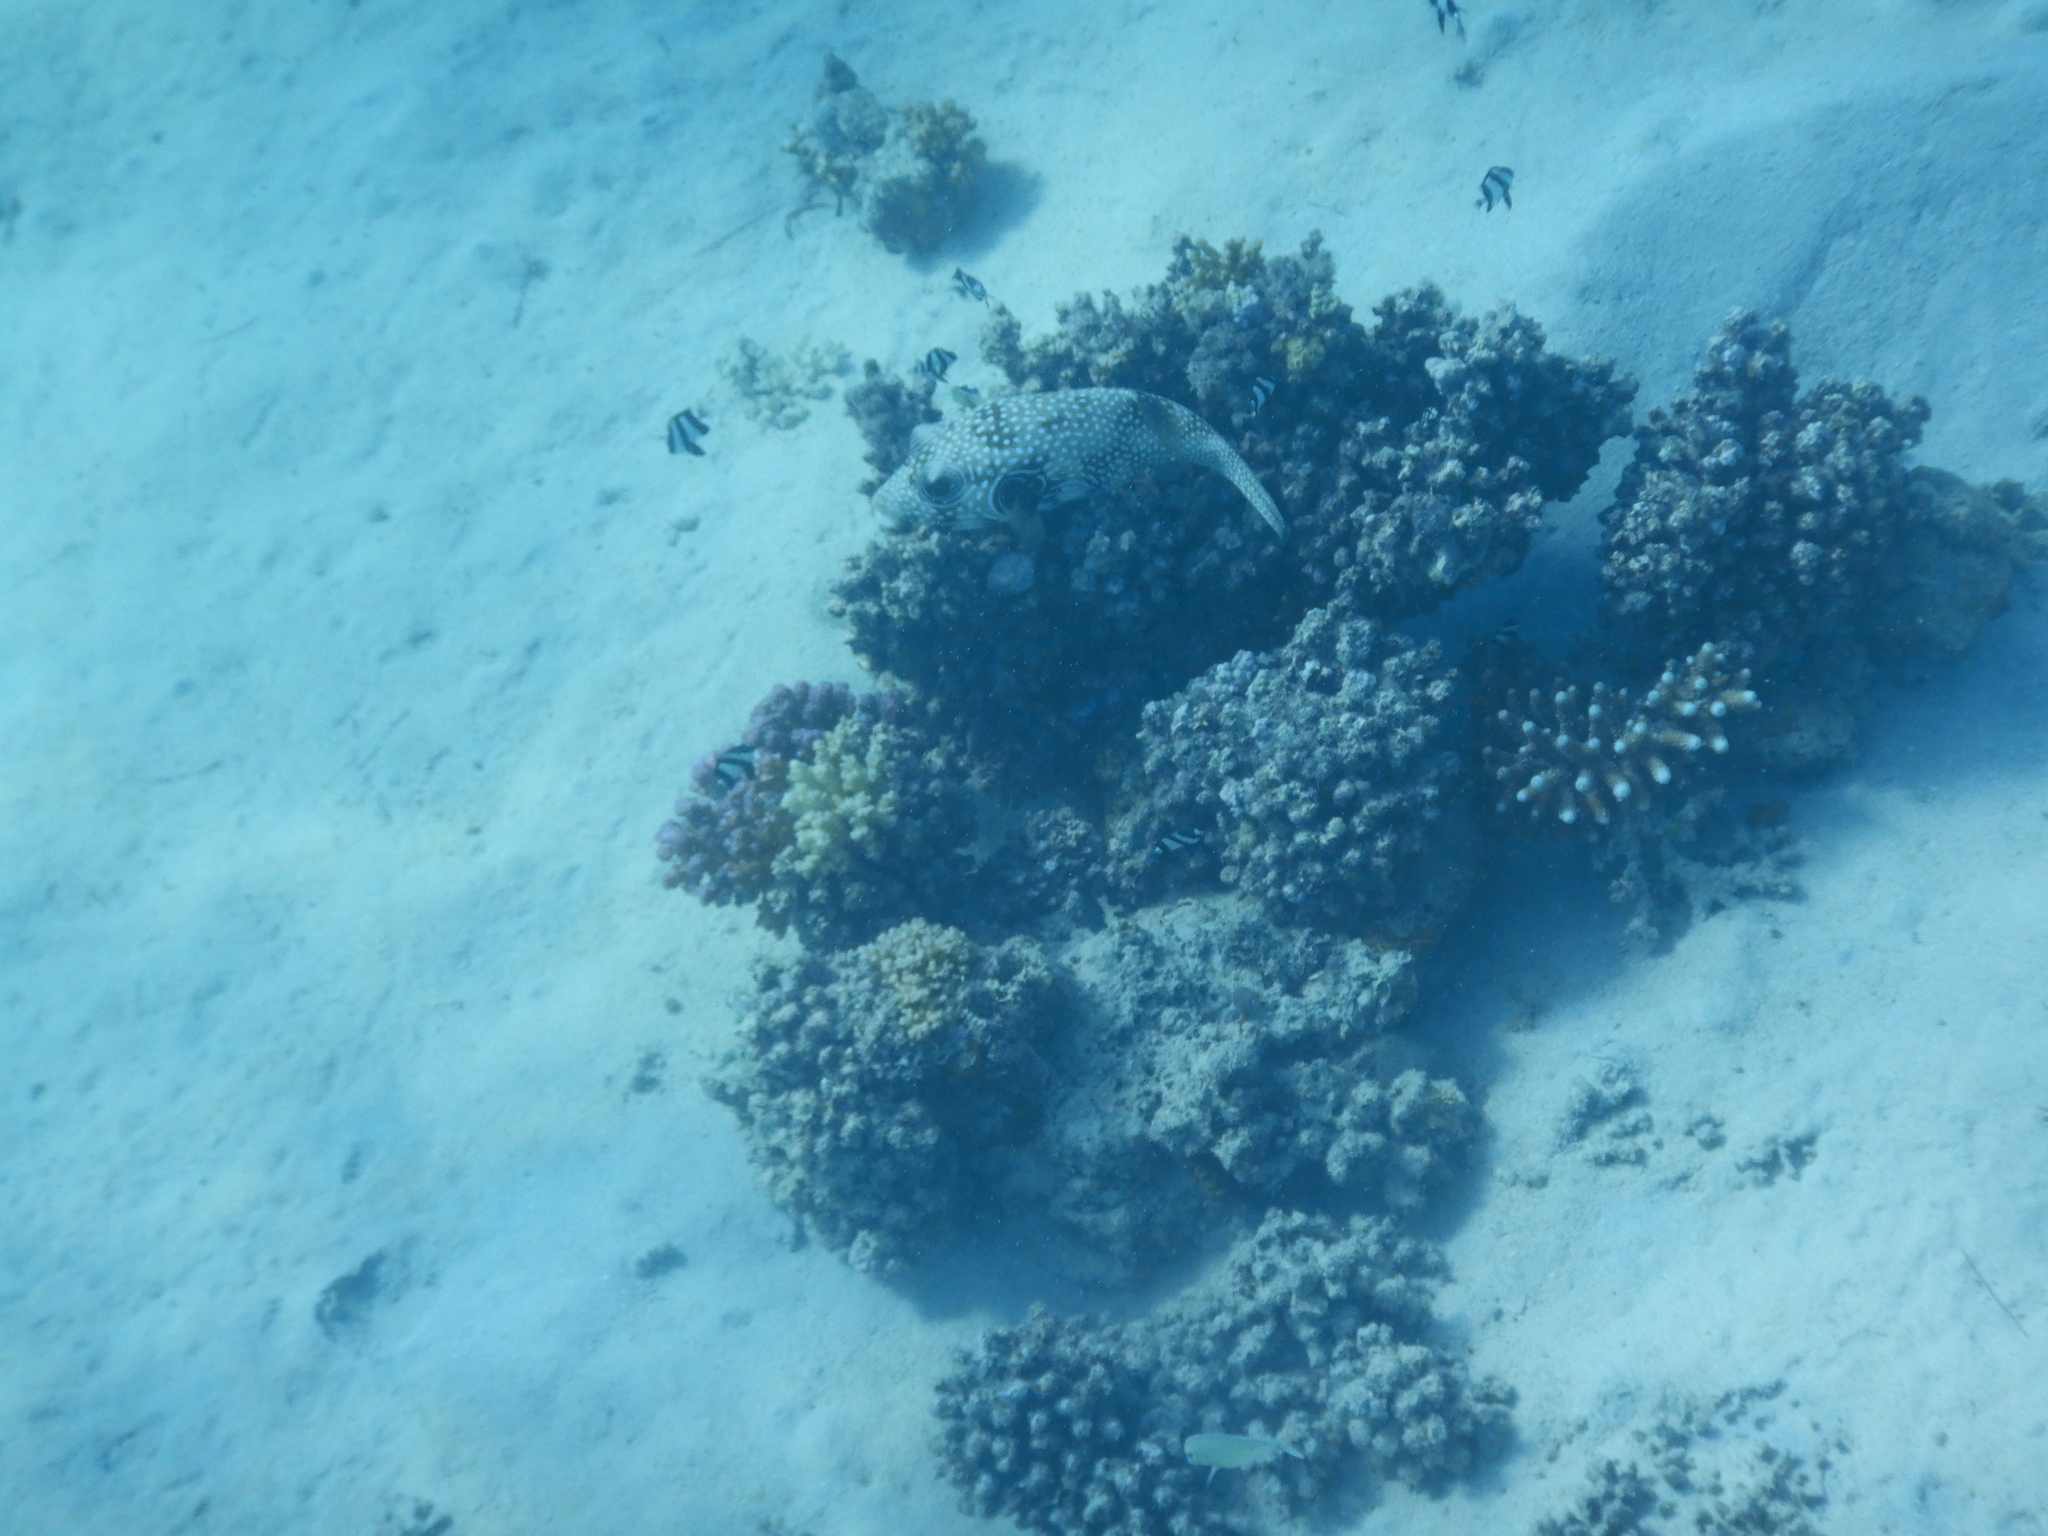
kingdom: Animalia
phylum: Chordata
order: Perciformes
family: Pomacentridae
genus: Dascyllus
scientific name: Dascyllus abudafur
